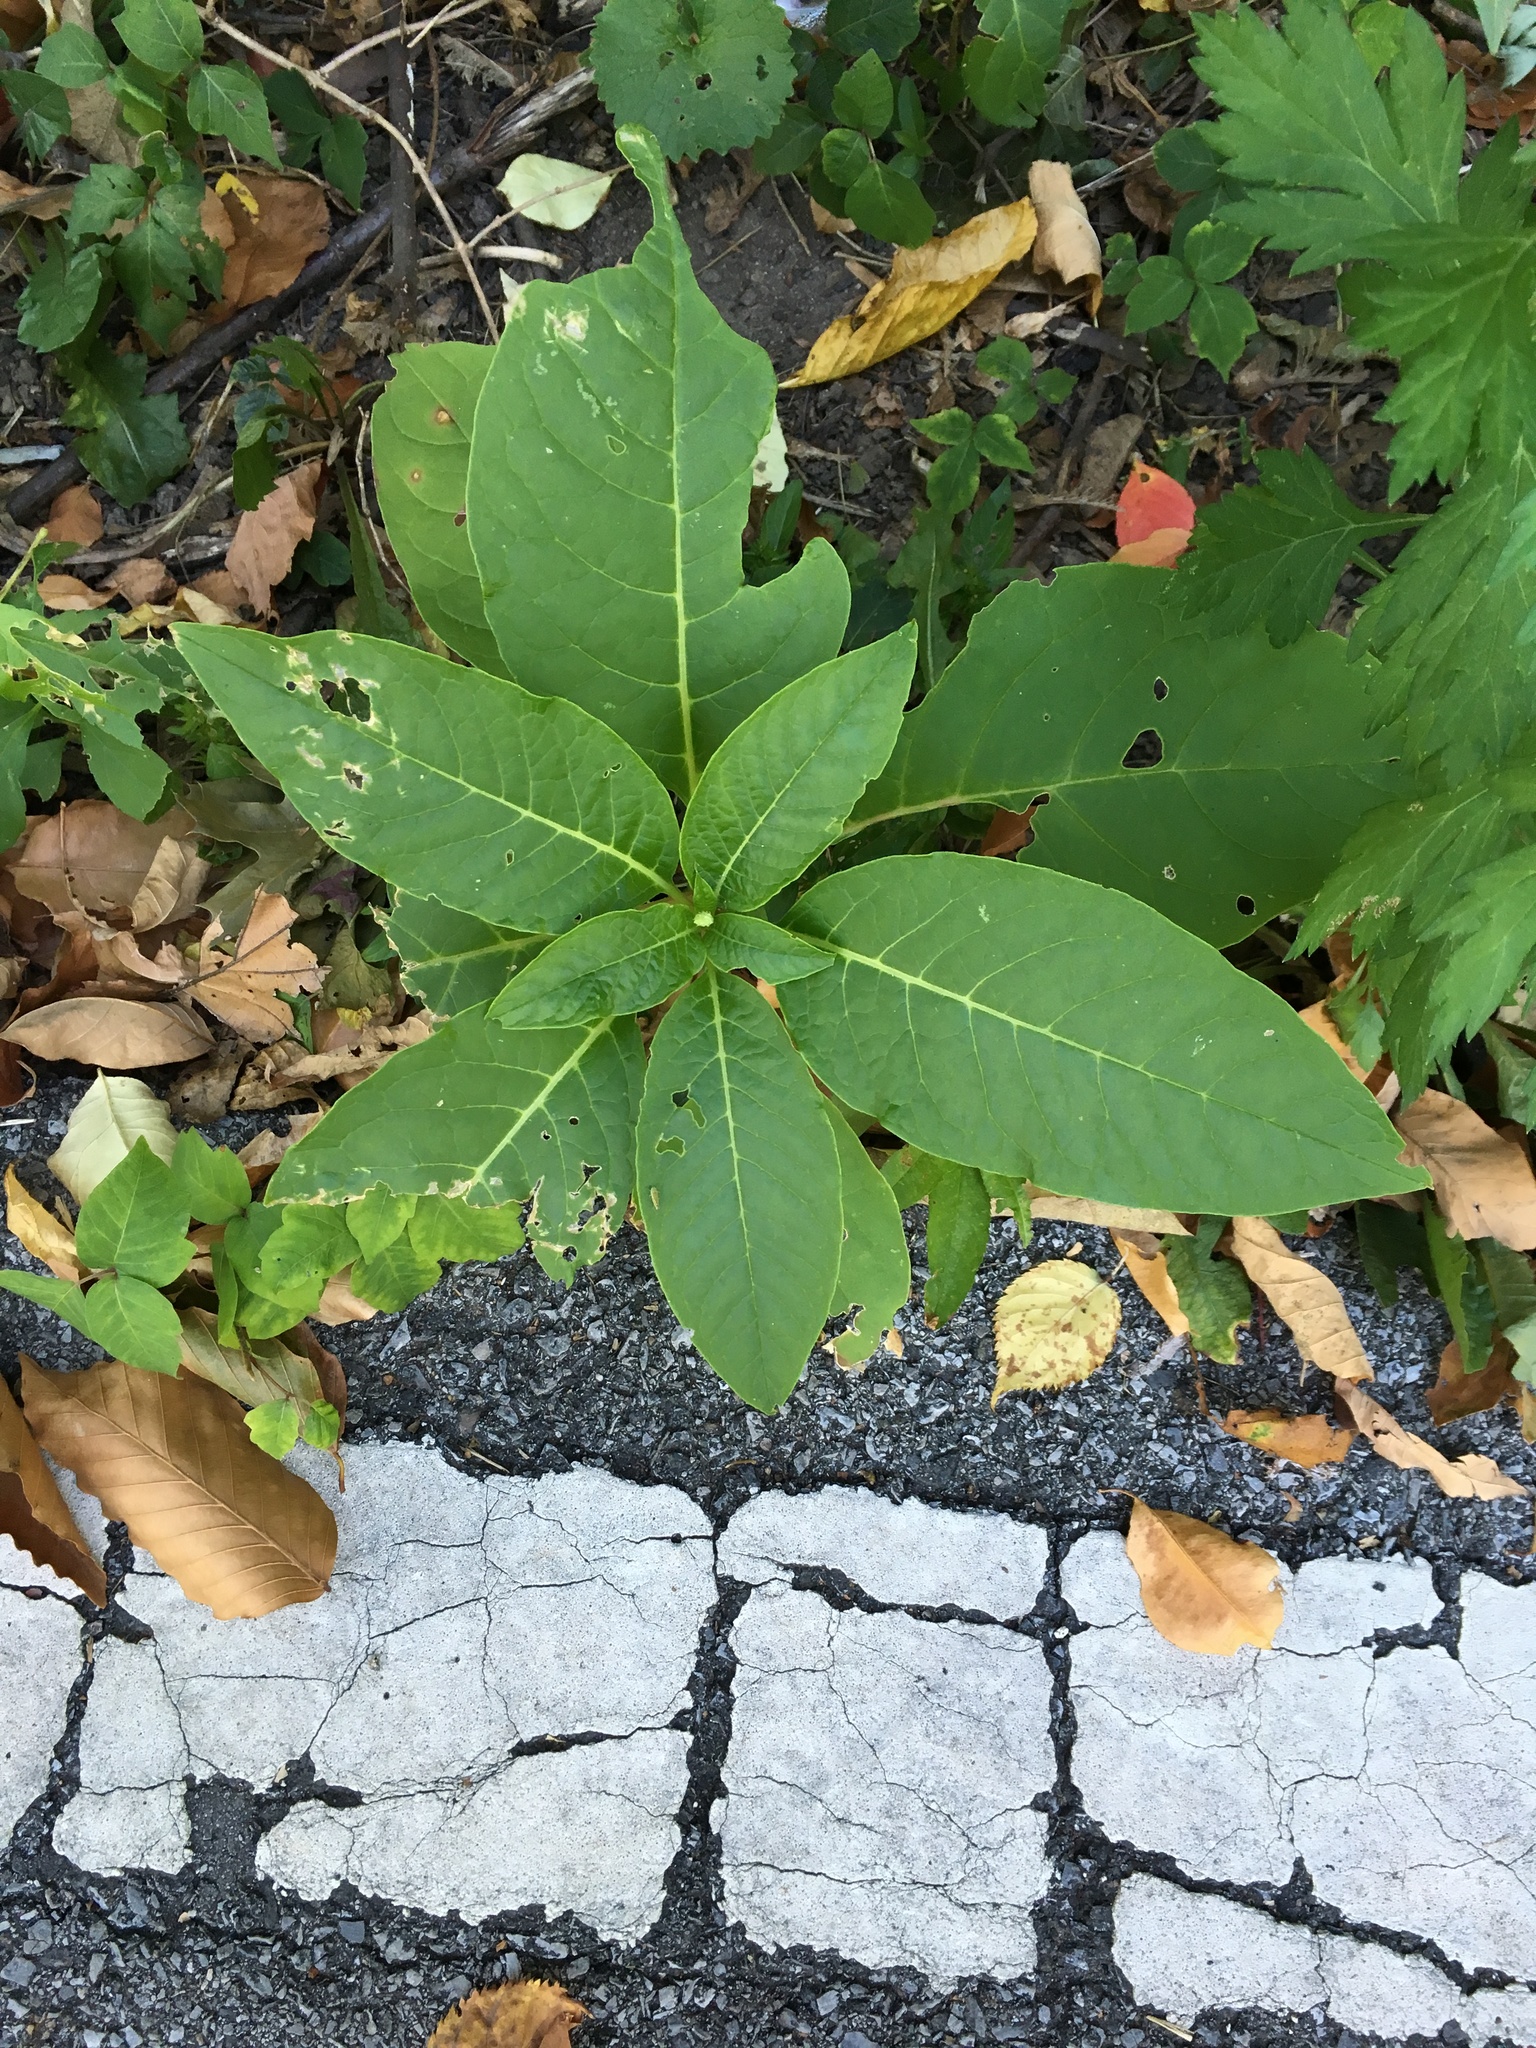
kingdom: Plantae
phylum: Tracheophyta
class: Magnoliopsida
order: Caryophyllales
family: Phytolaccaceae
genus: Phytolacca
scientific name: Phytolacca americana
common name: American pokeweed
